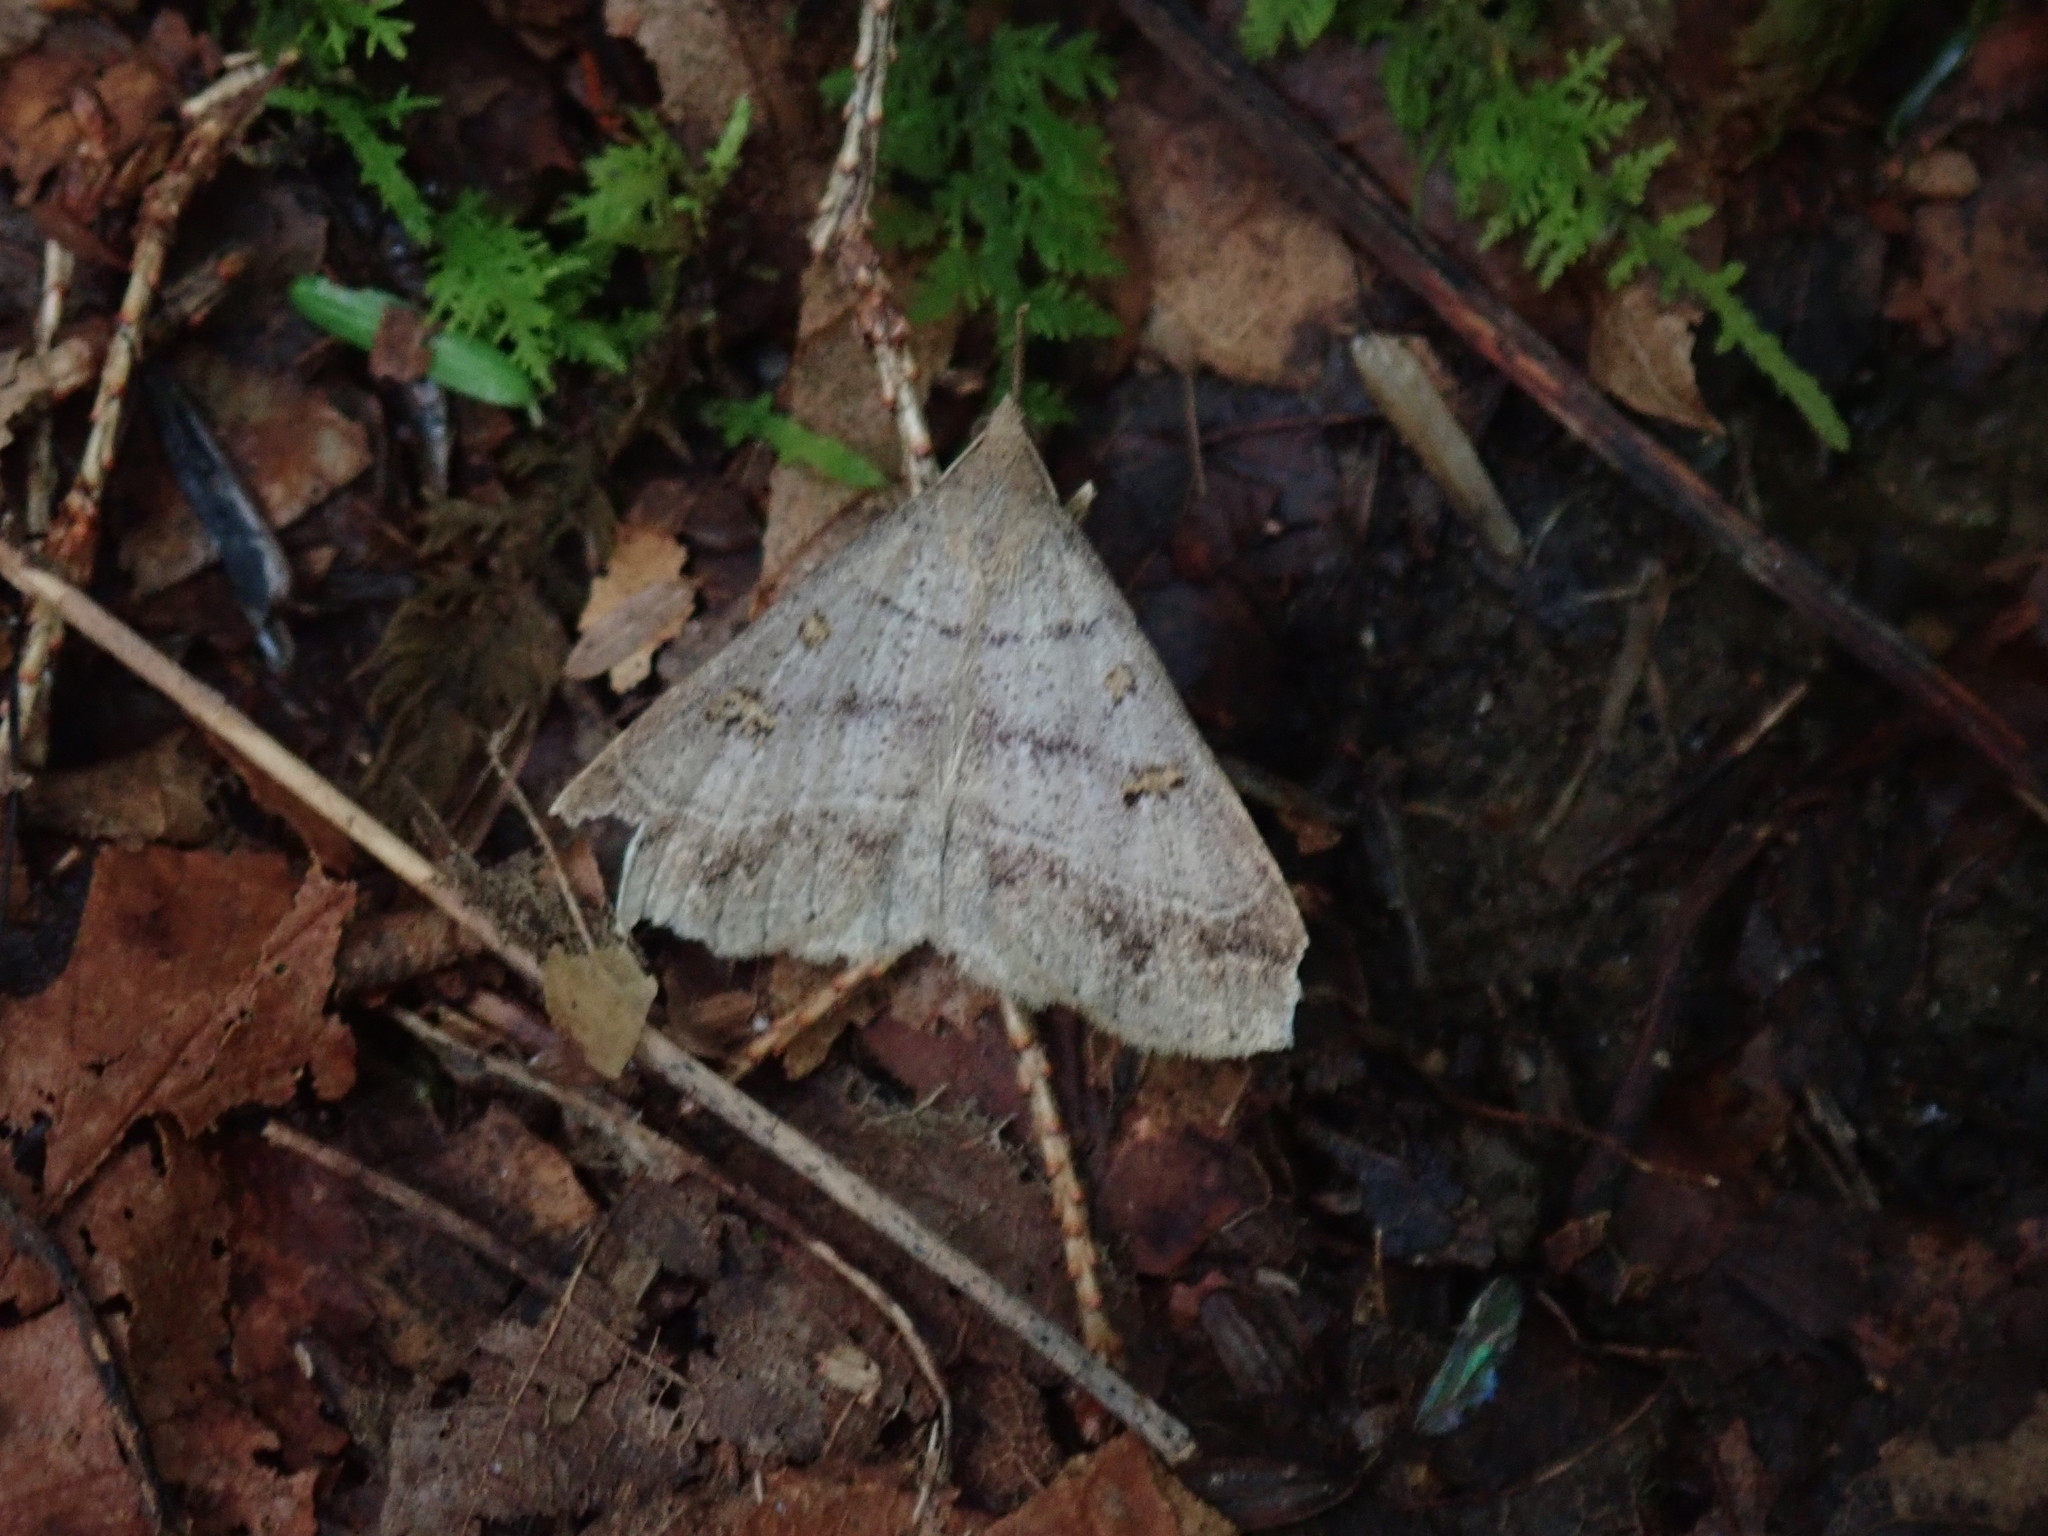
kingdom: Animalia
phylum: Arthropoda
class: Insecta
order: Lepidoptera
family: Erebidae
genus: Renia
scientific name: Renia flavipunctalis
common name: Yellow-spotted renia moth
